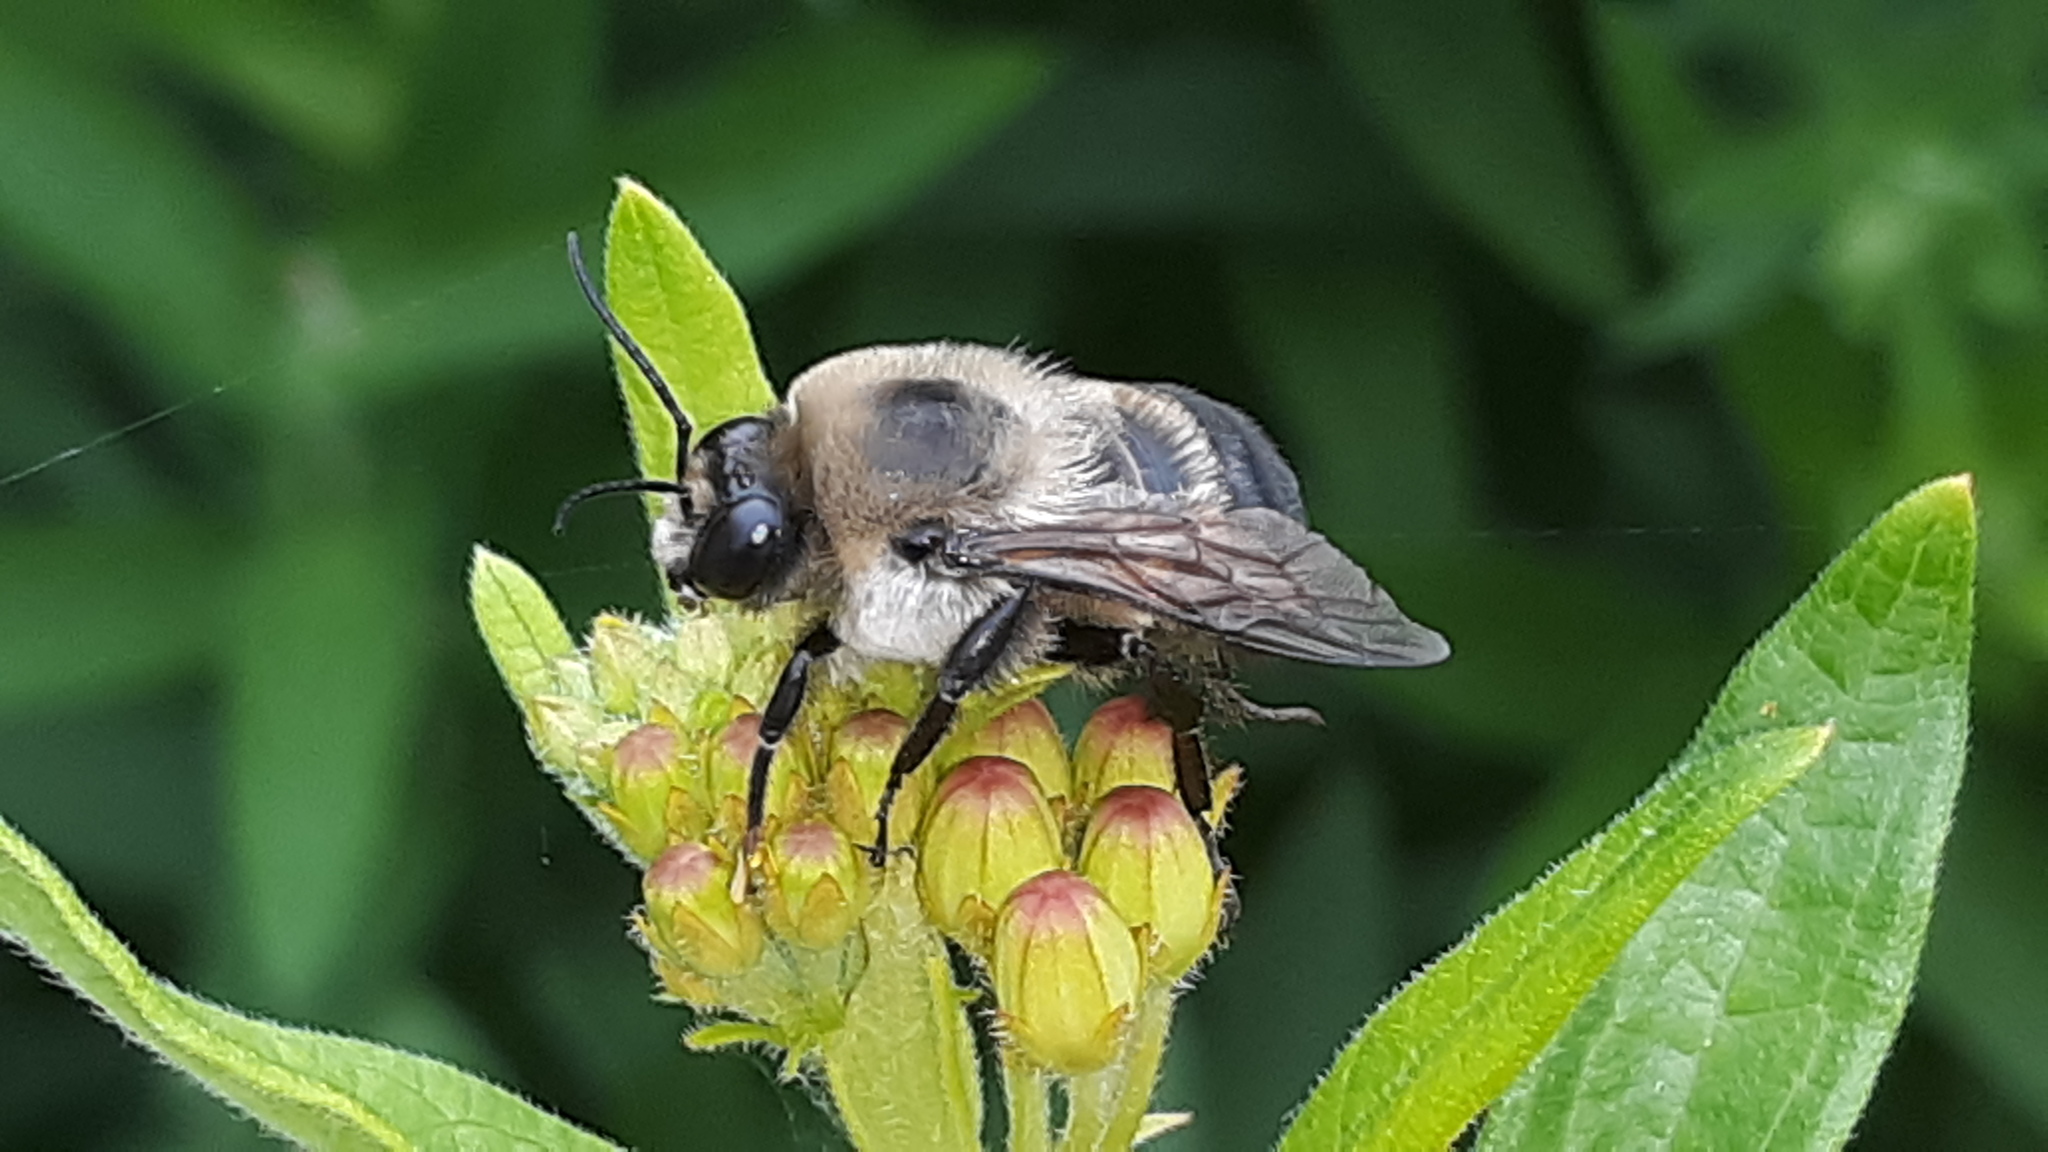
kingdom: Animalia
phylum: Arthropoda
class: Insecta
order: Hymenoptera
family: Apidae
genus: Bombus
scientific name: Bombus griseocollis
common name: Brown-belted bumble bee
